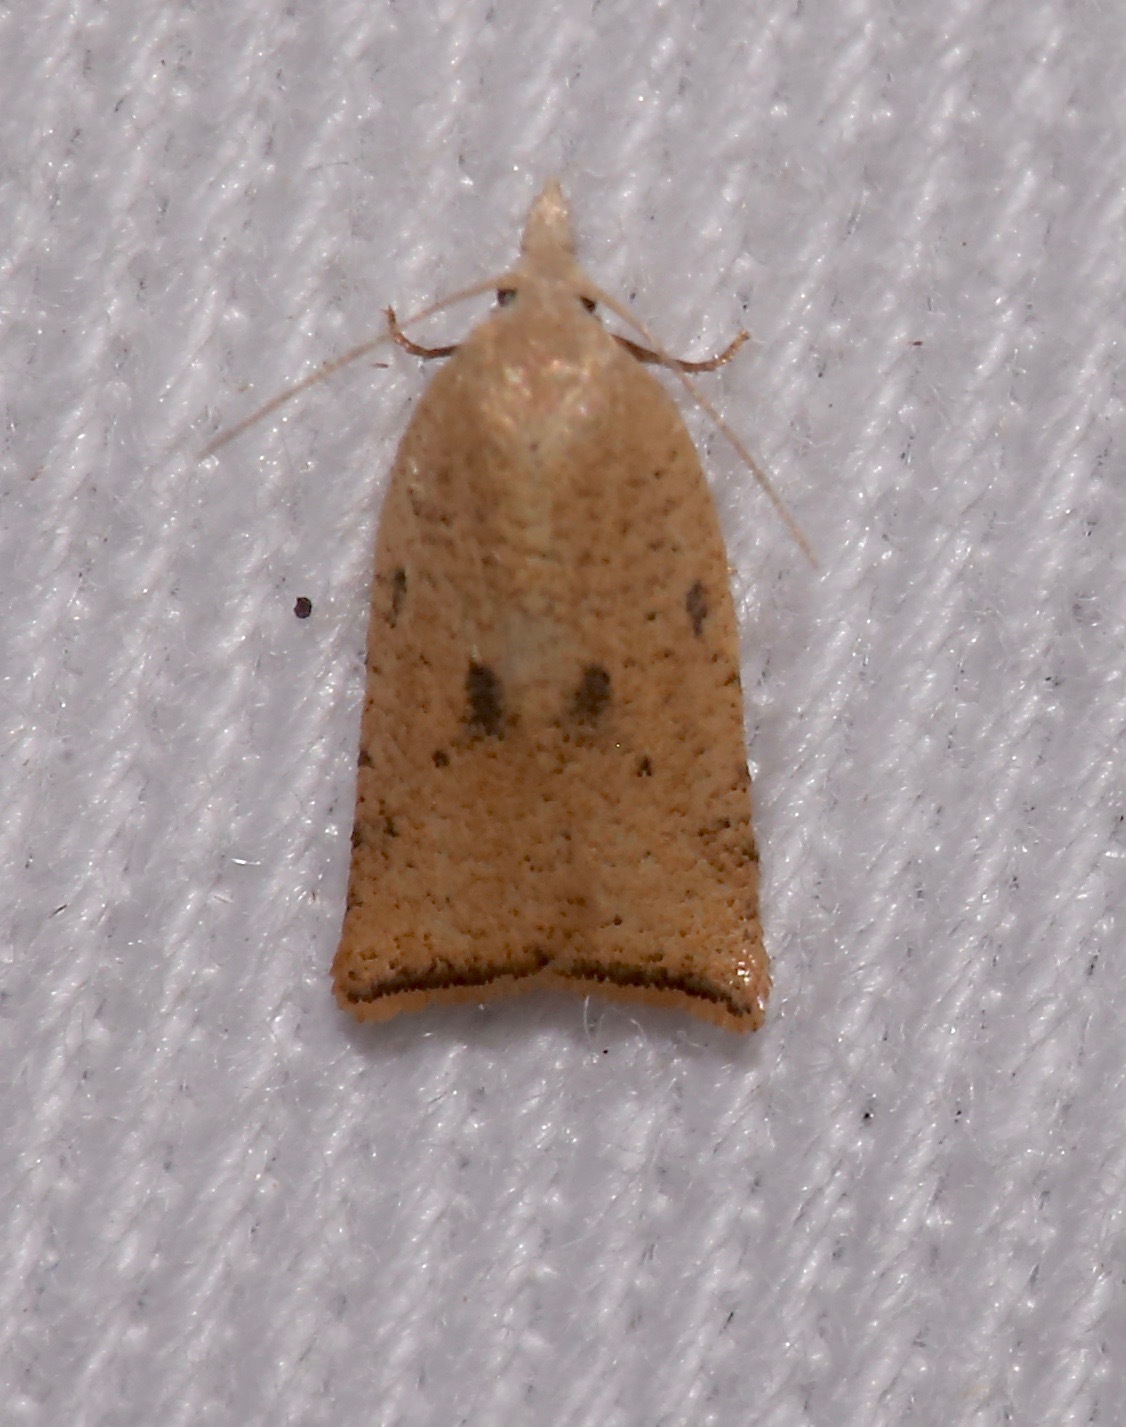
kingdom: Animalia
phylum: Arthropoda
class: Insecta
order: Lepidoptera
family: Tortricidae
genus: Coelostathma
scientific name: Coelostathma placidana
